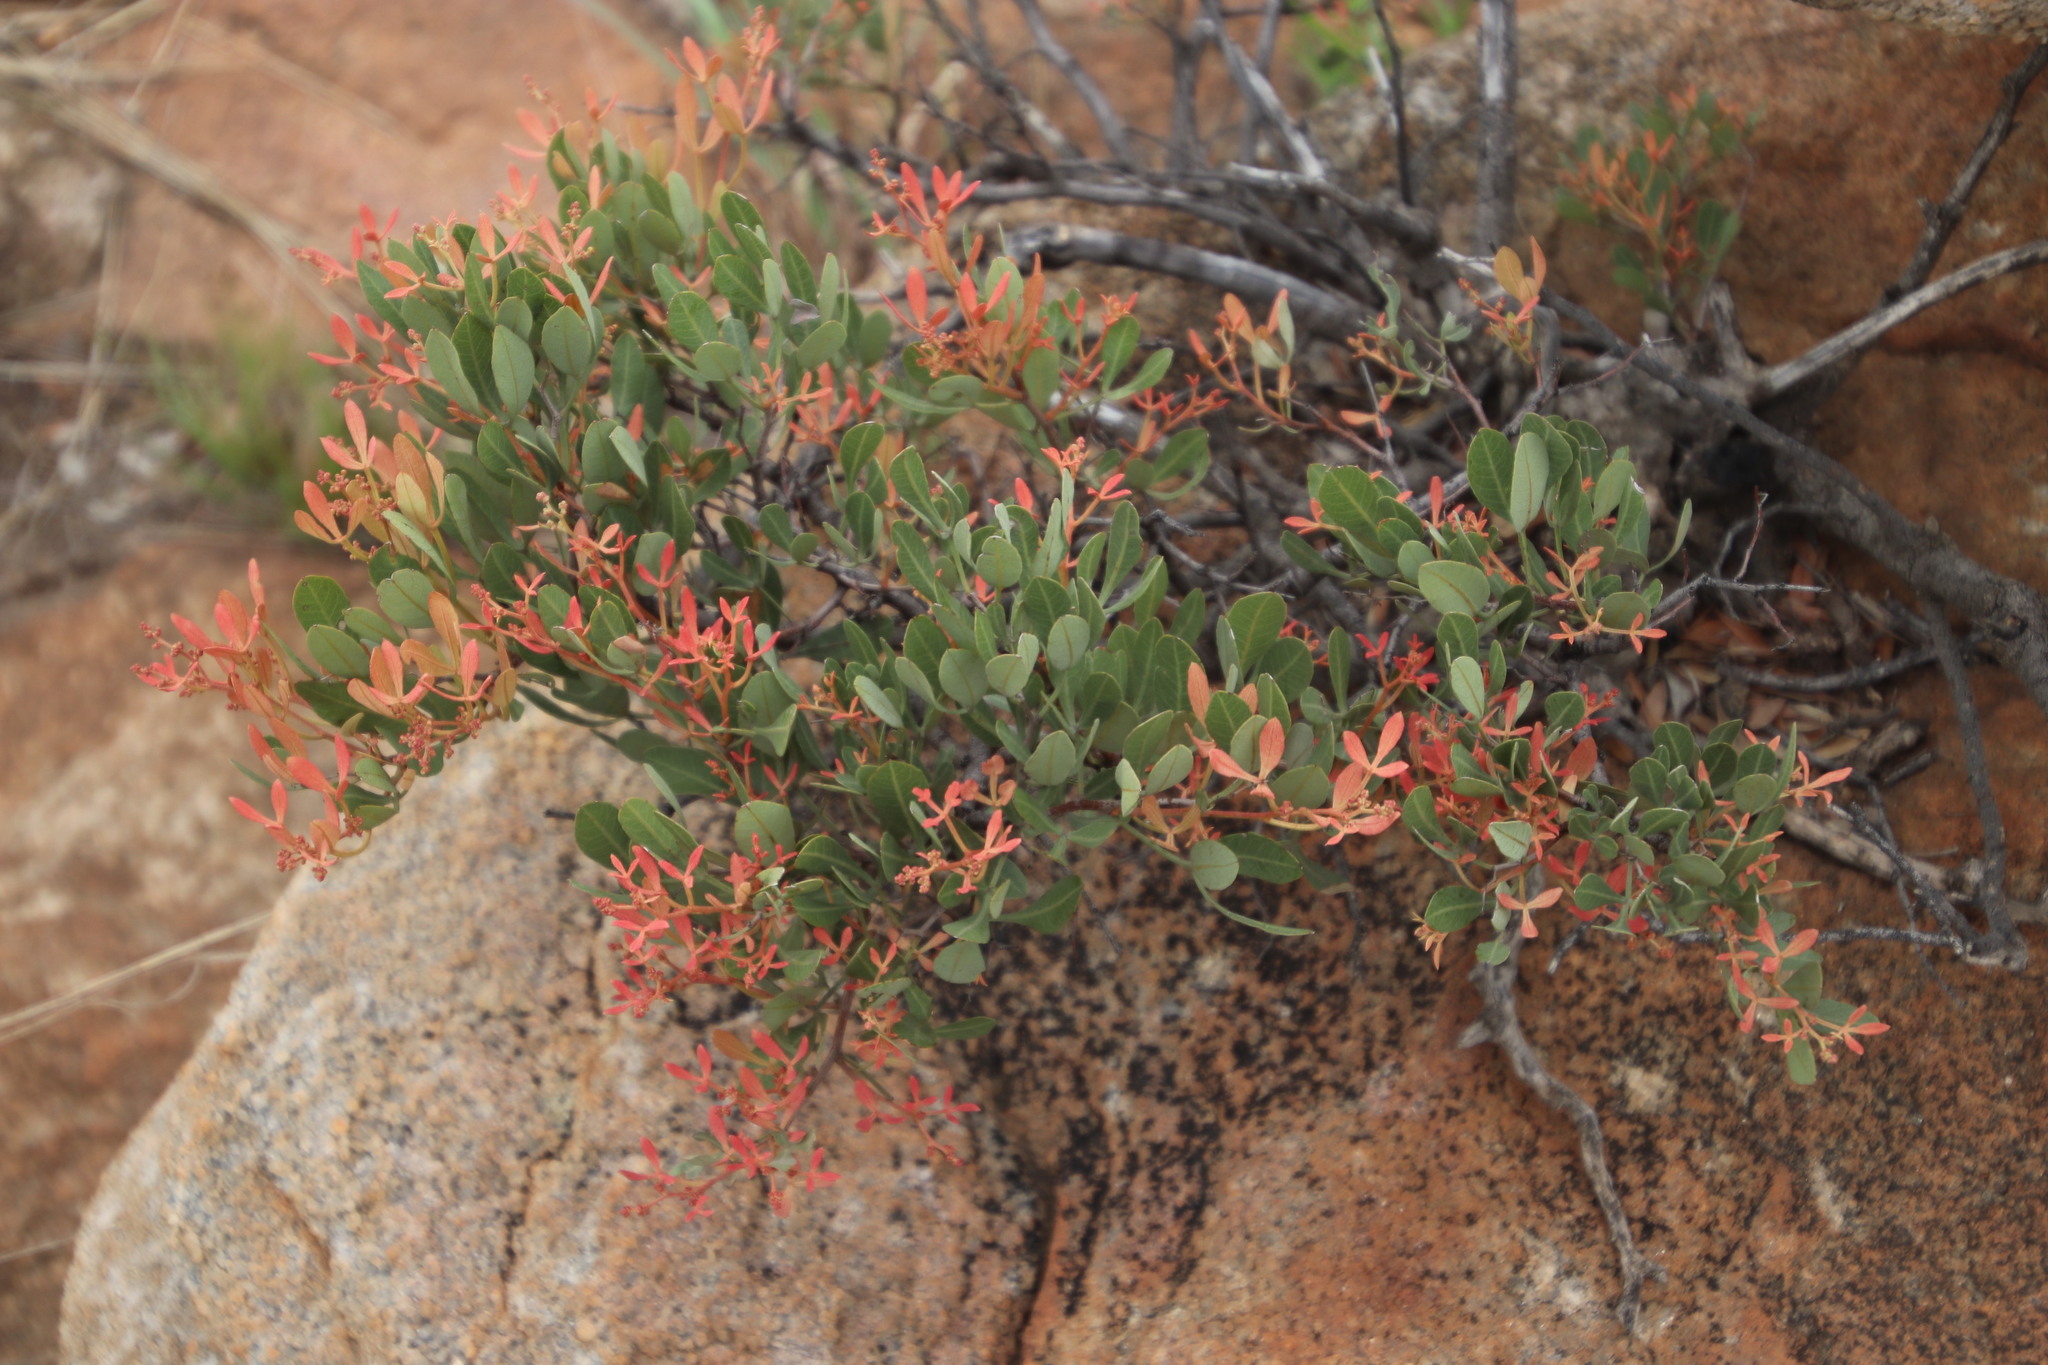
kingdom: Plantae
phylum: Tracheophyta
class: Magnoliopsida
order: Sapindales
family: Anacardiaceae
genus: Searsia
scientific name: Searsia magalismontana
